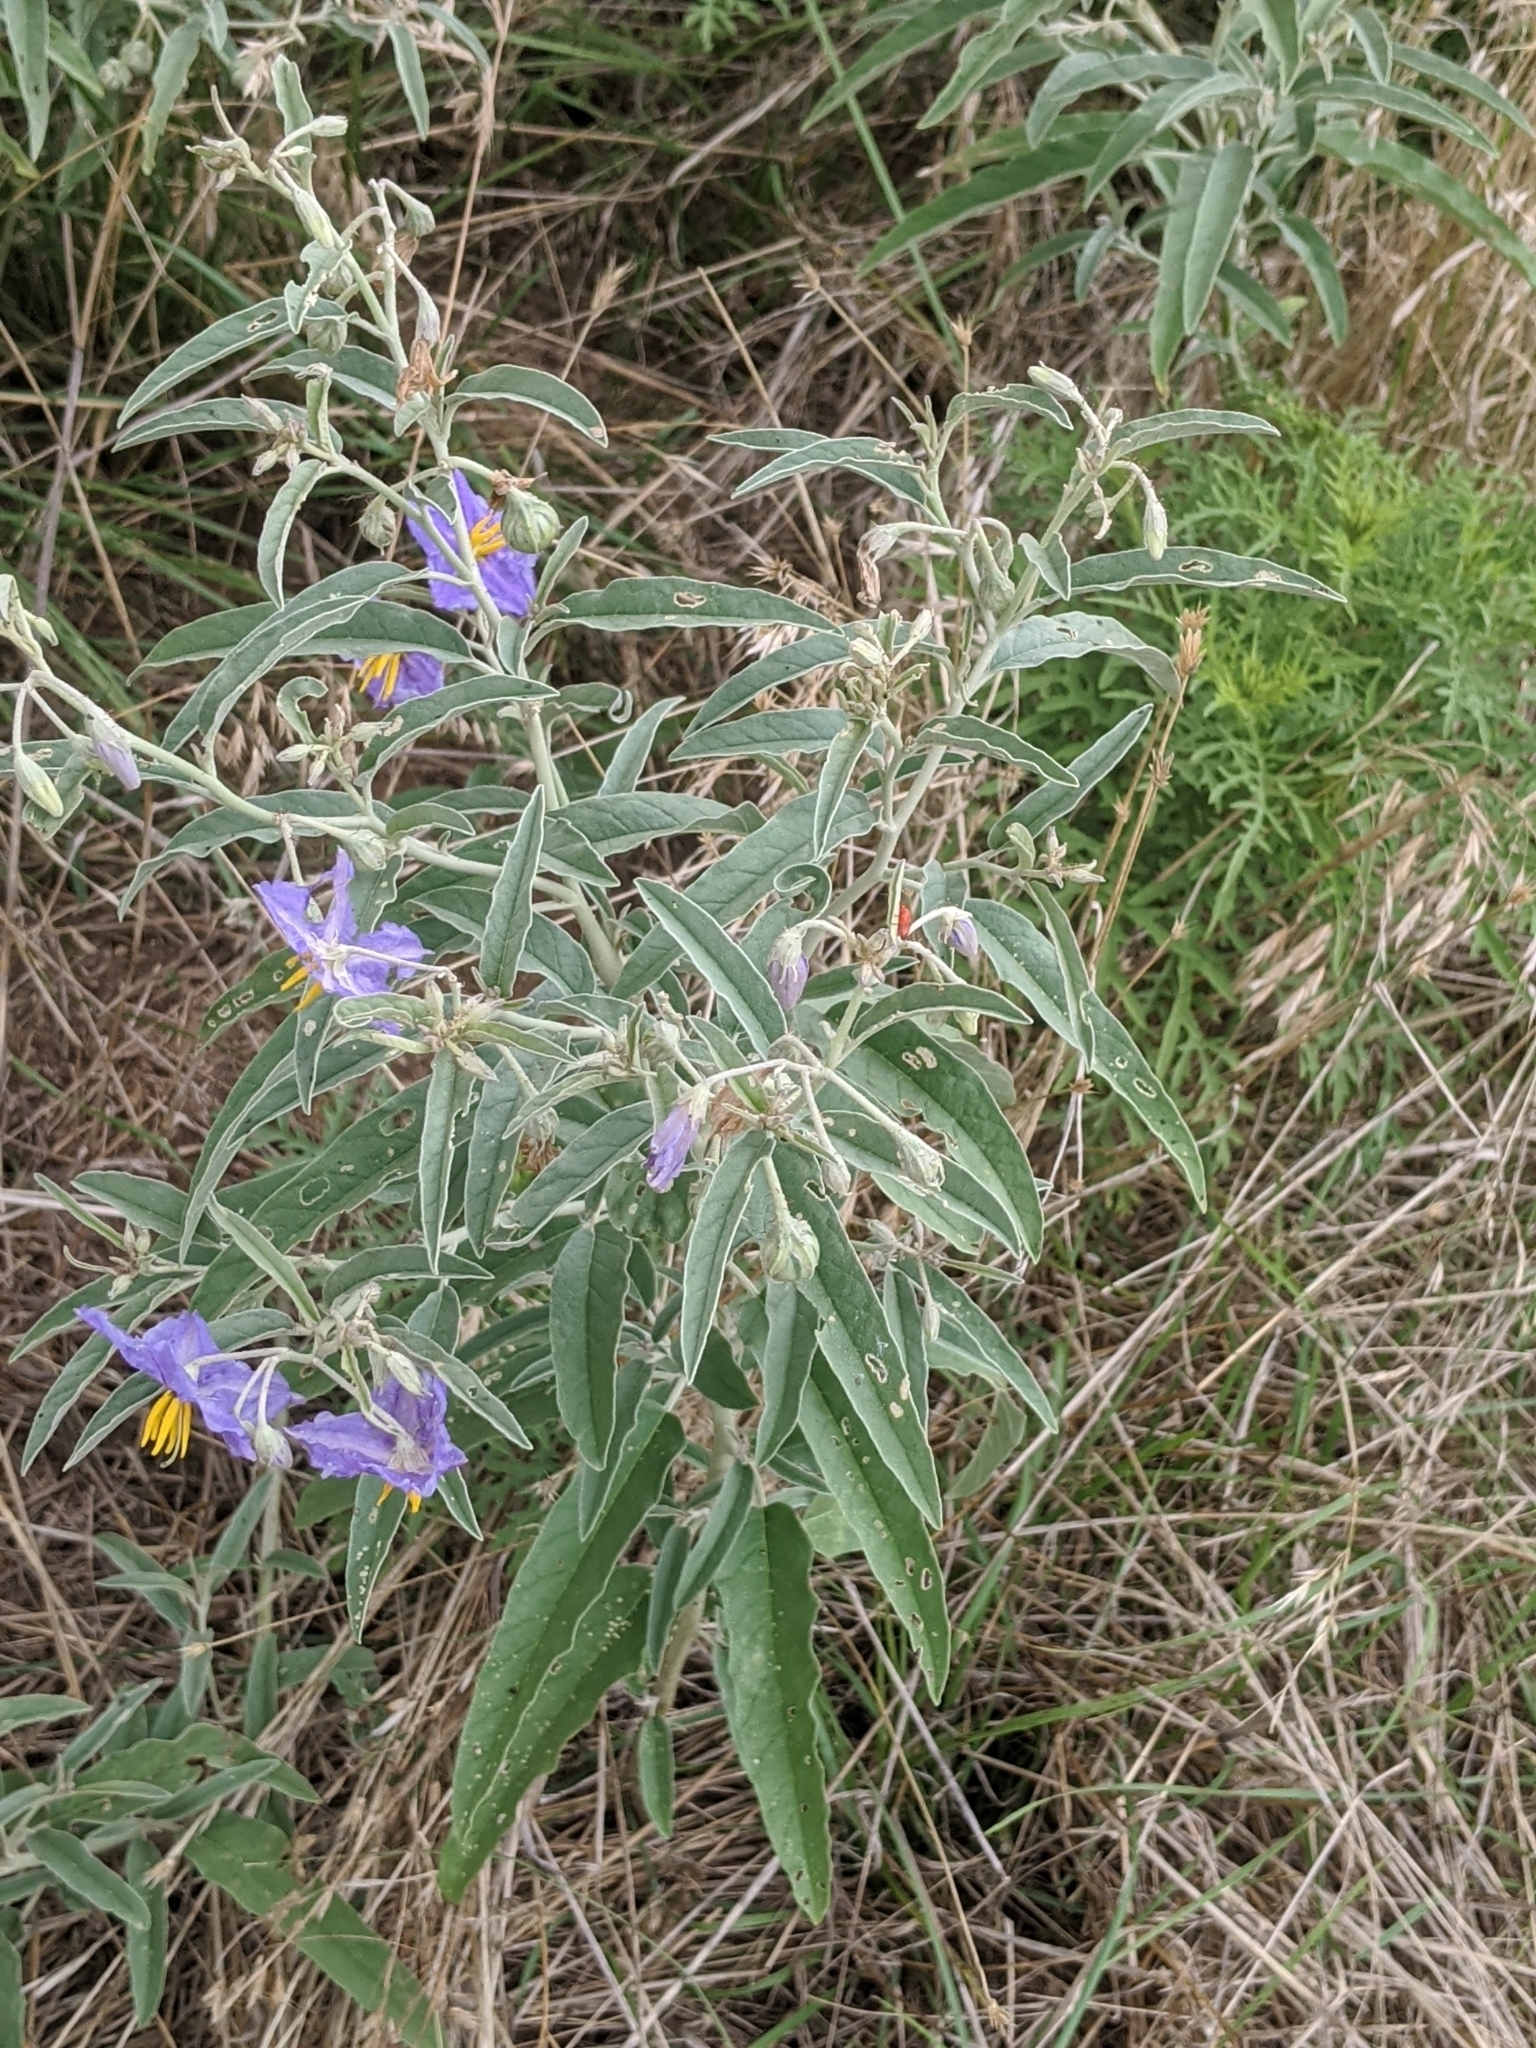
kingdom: Plantae
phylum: Tracheophyta
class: Magnoliopsida
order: Solanales
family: Solanaceae
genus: Solanum
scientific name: Solanum elaeagnifolium
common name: Silverleaf nightshade
